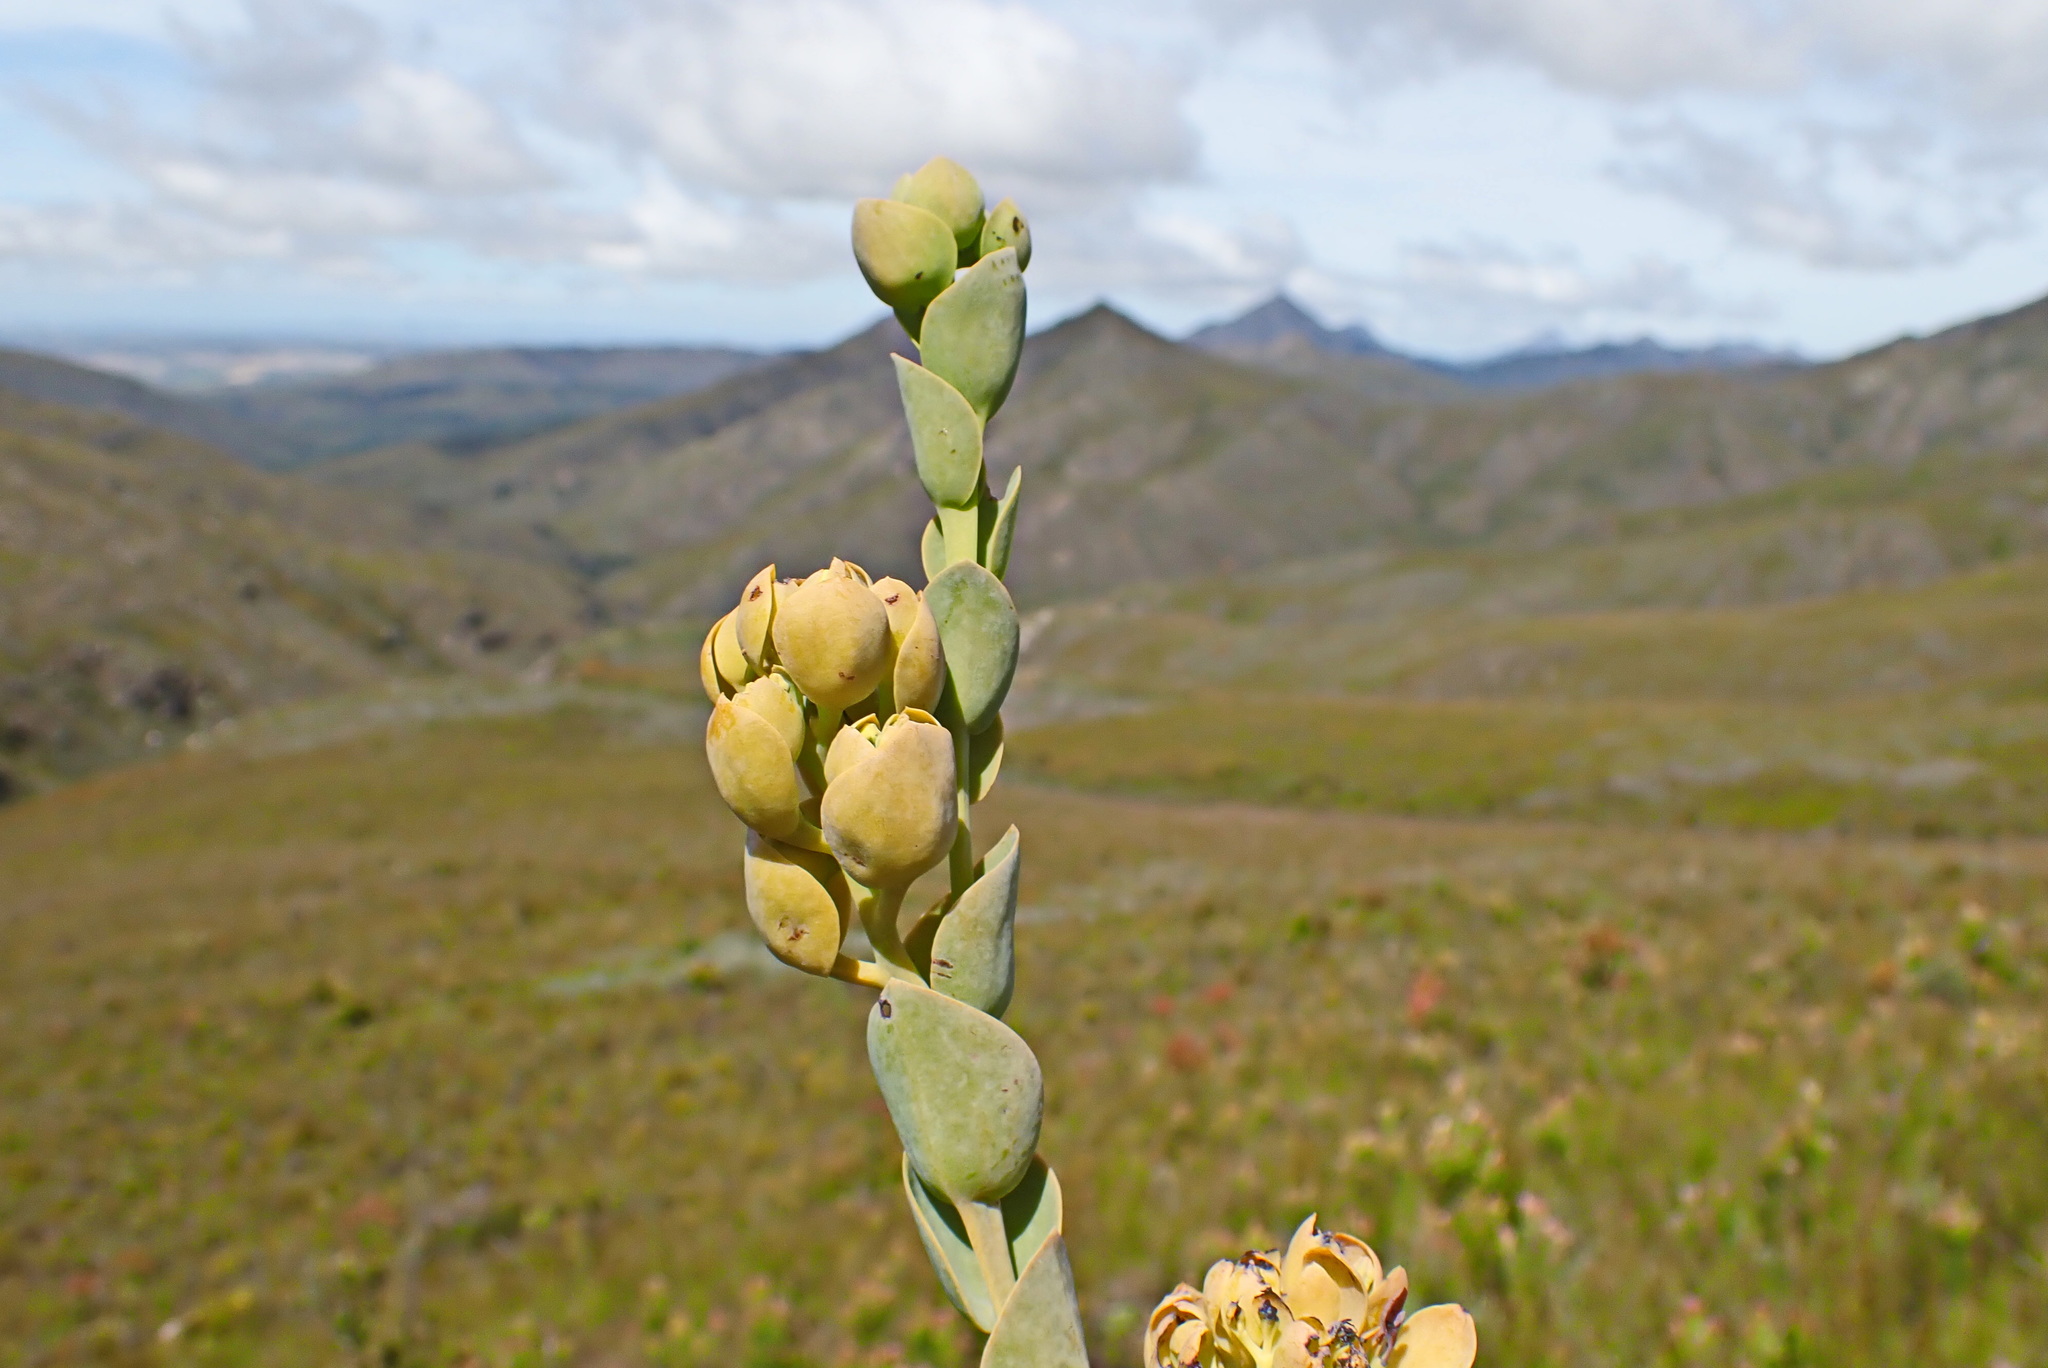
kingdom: Plantae
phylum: Tracheophyta
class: Magnoliopsida
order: Santalales
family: Thesiaceae
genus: Thesium
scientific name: Thesium euphorbioides
